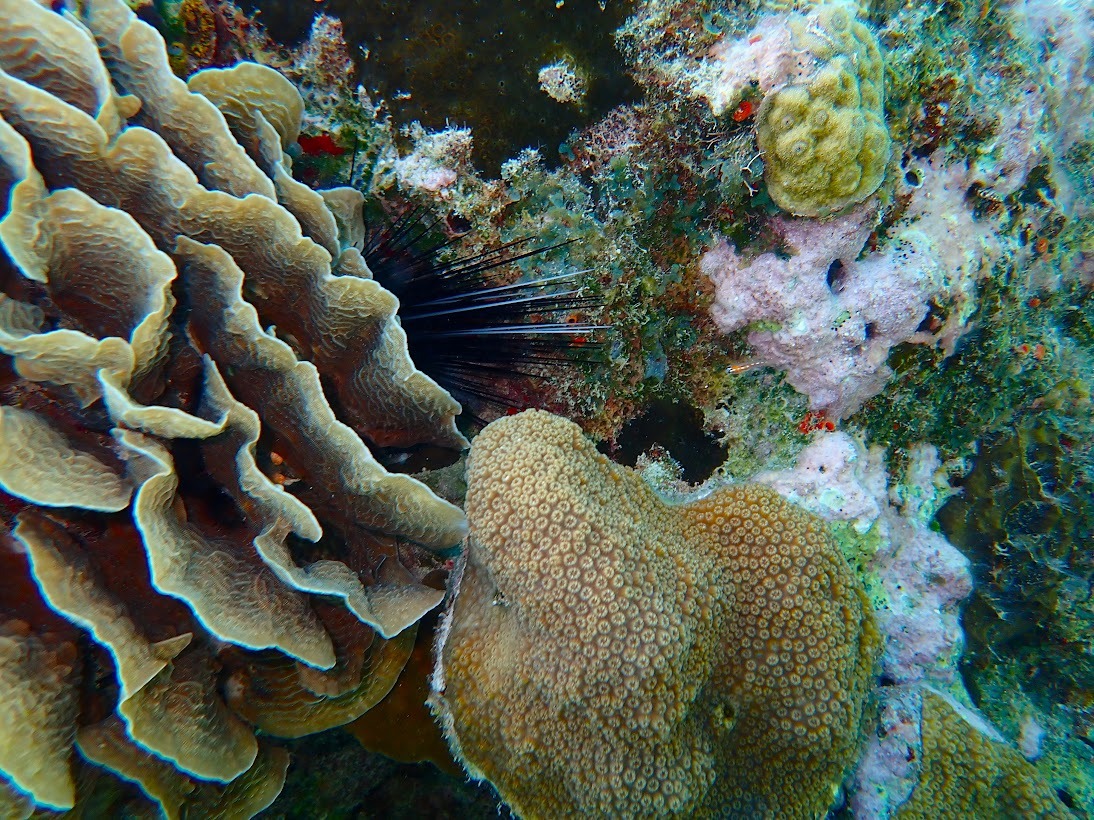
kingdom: Animalia
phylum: Echinodermata
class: Echinoidea
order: Diadematoida
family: Diadematidae
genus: Diadema
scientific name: Diadema antillarum
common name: Spiny urchin
